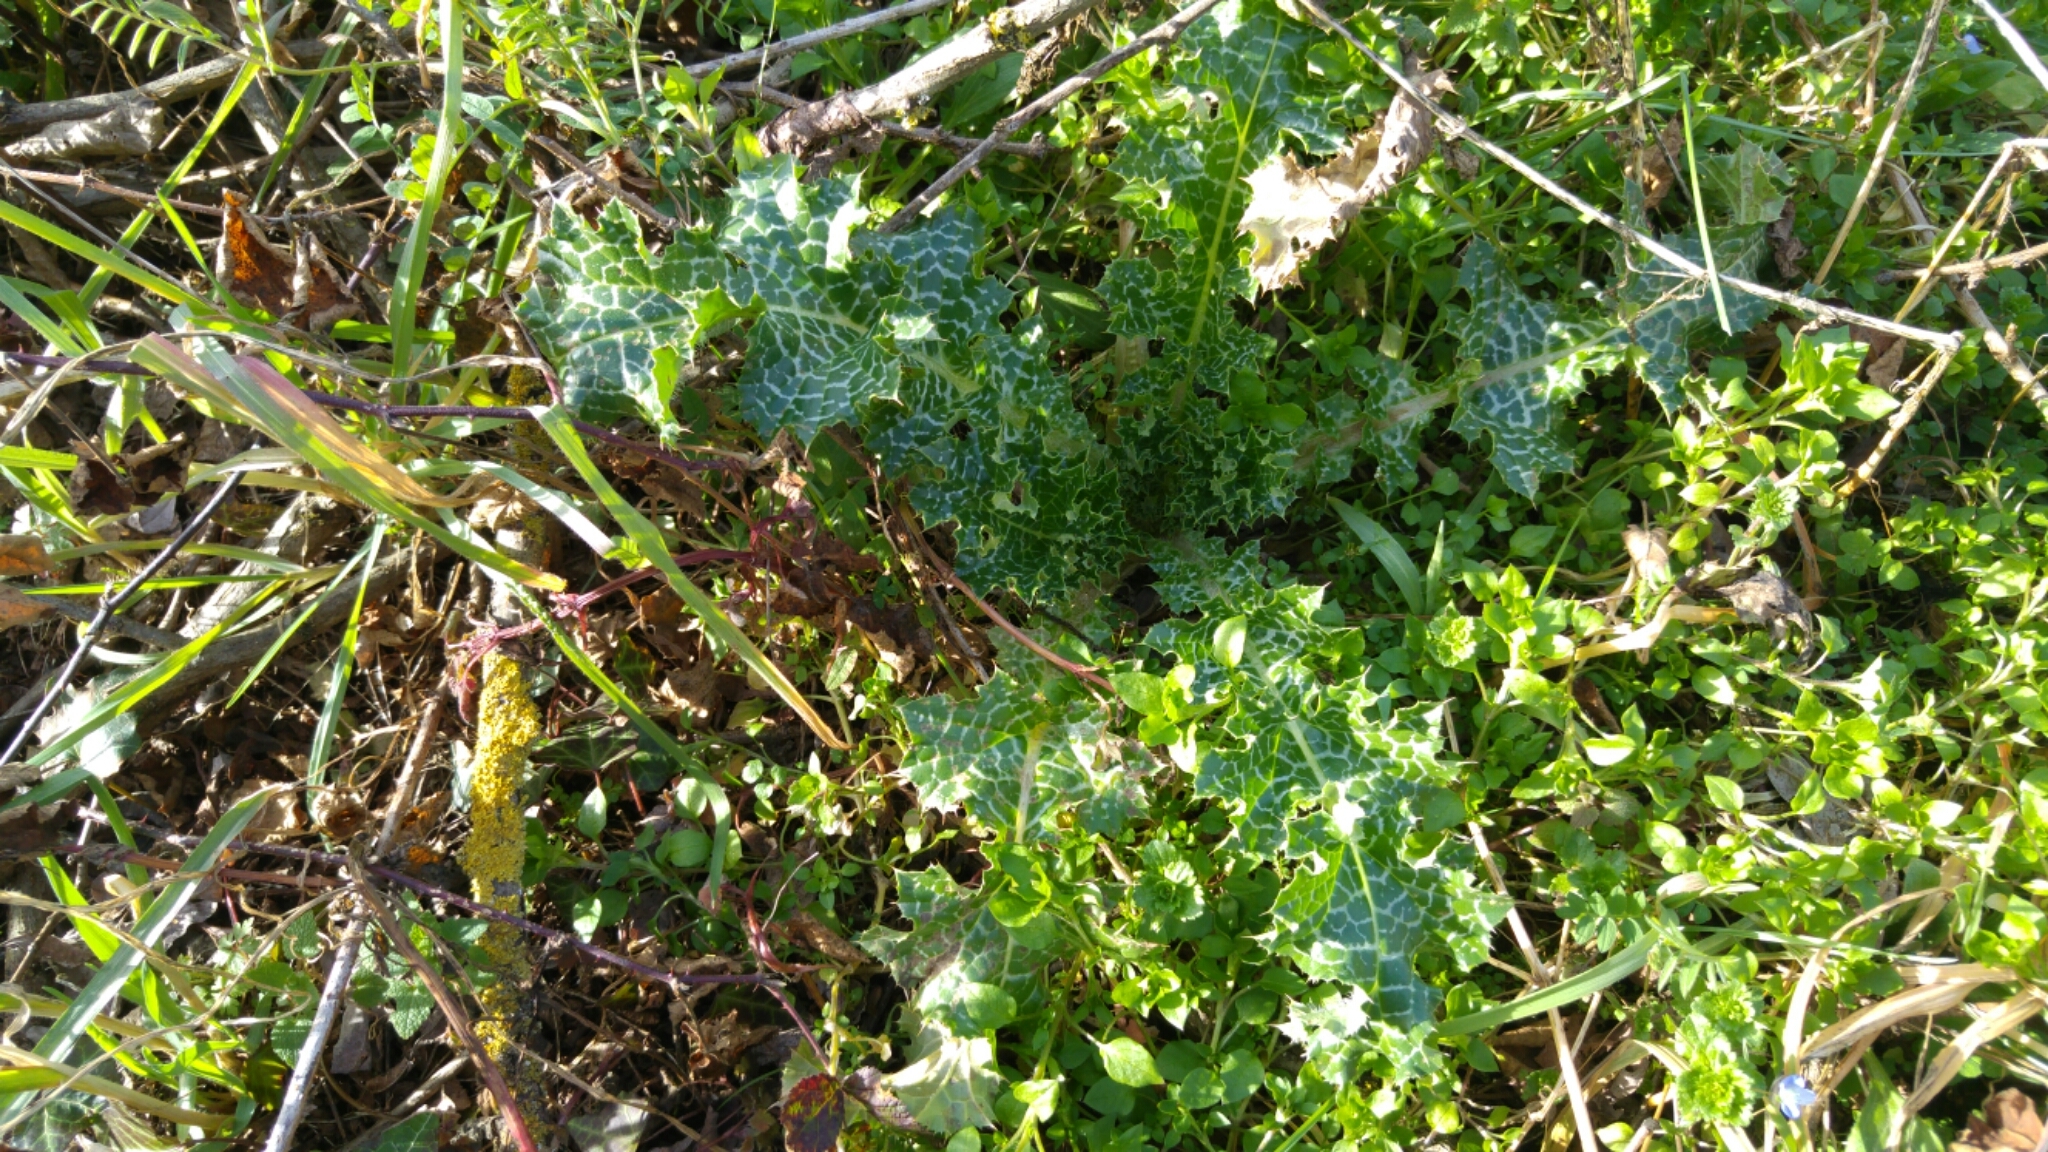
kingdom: Plantae
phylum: Tracheophyta
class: Magnoliopsida
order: Asterales
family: Asteraceae
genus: Silybum
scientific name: Silybum marianum
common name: Milk thistle
